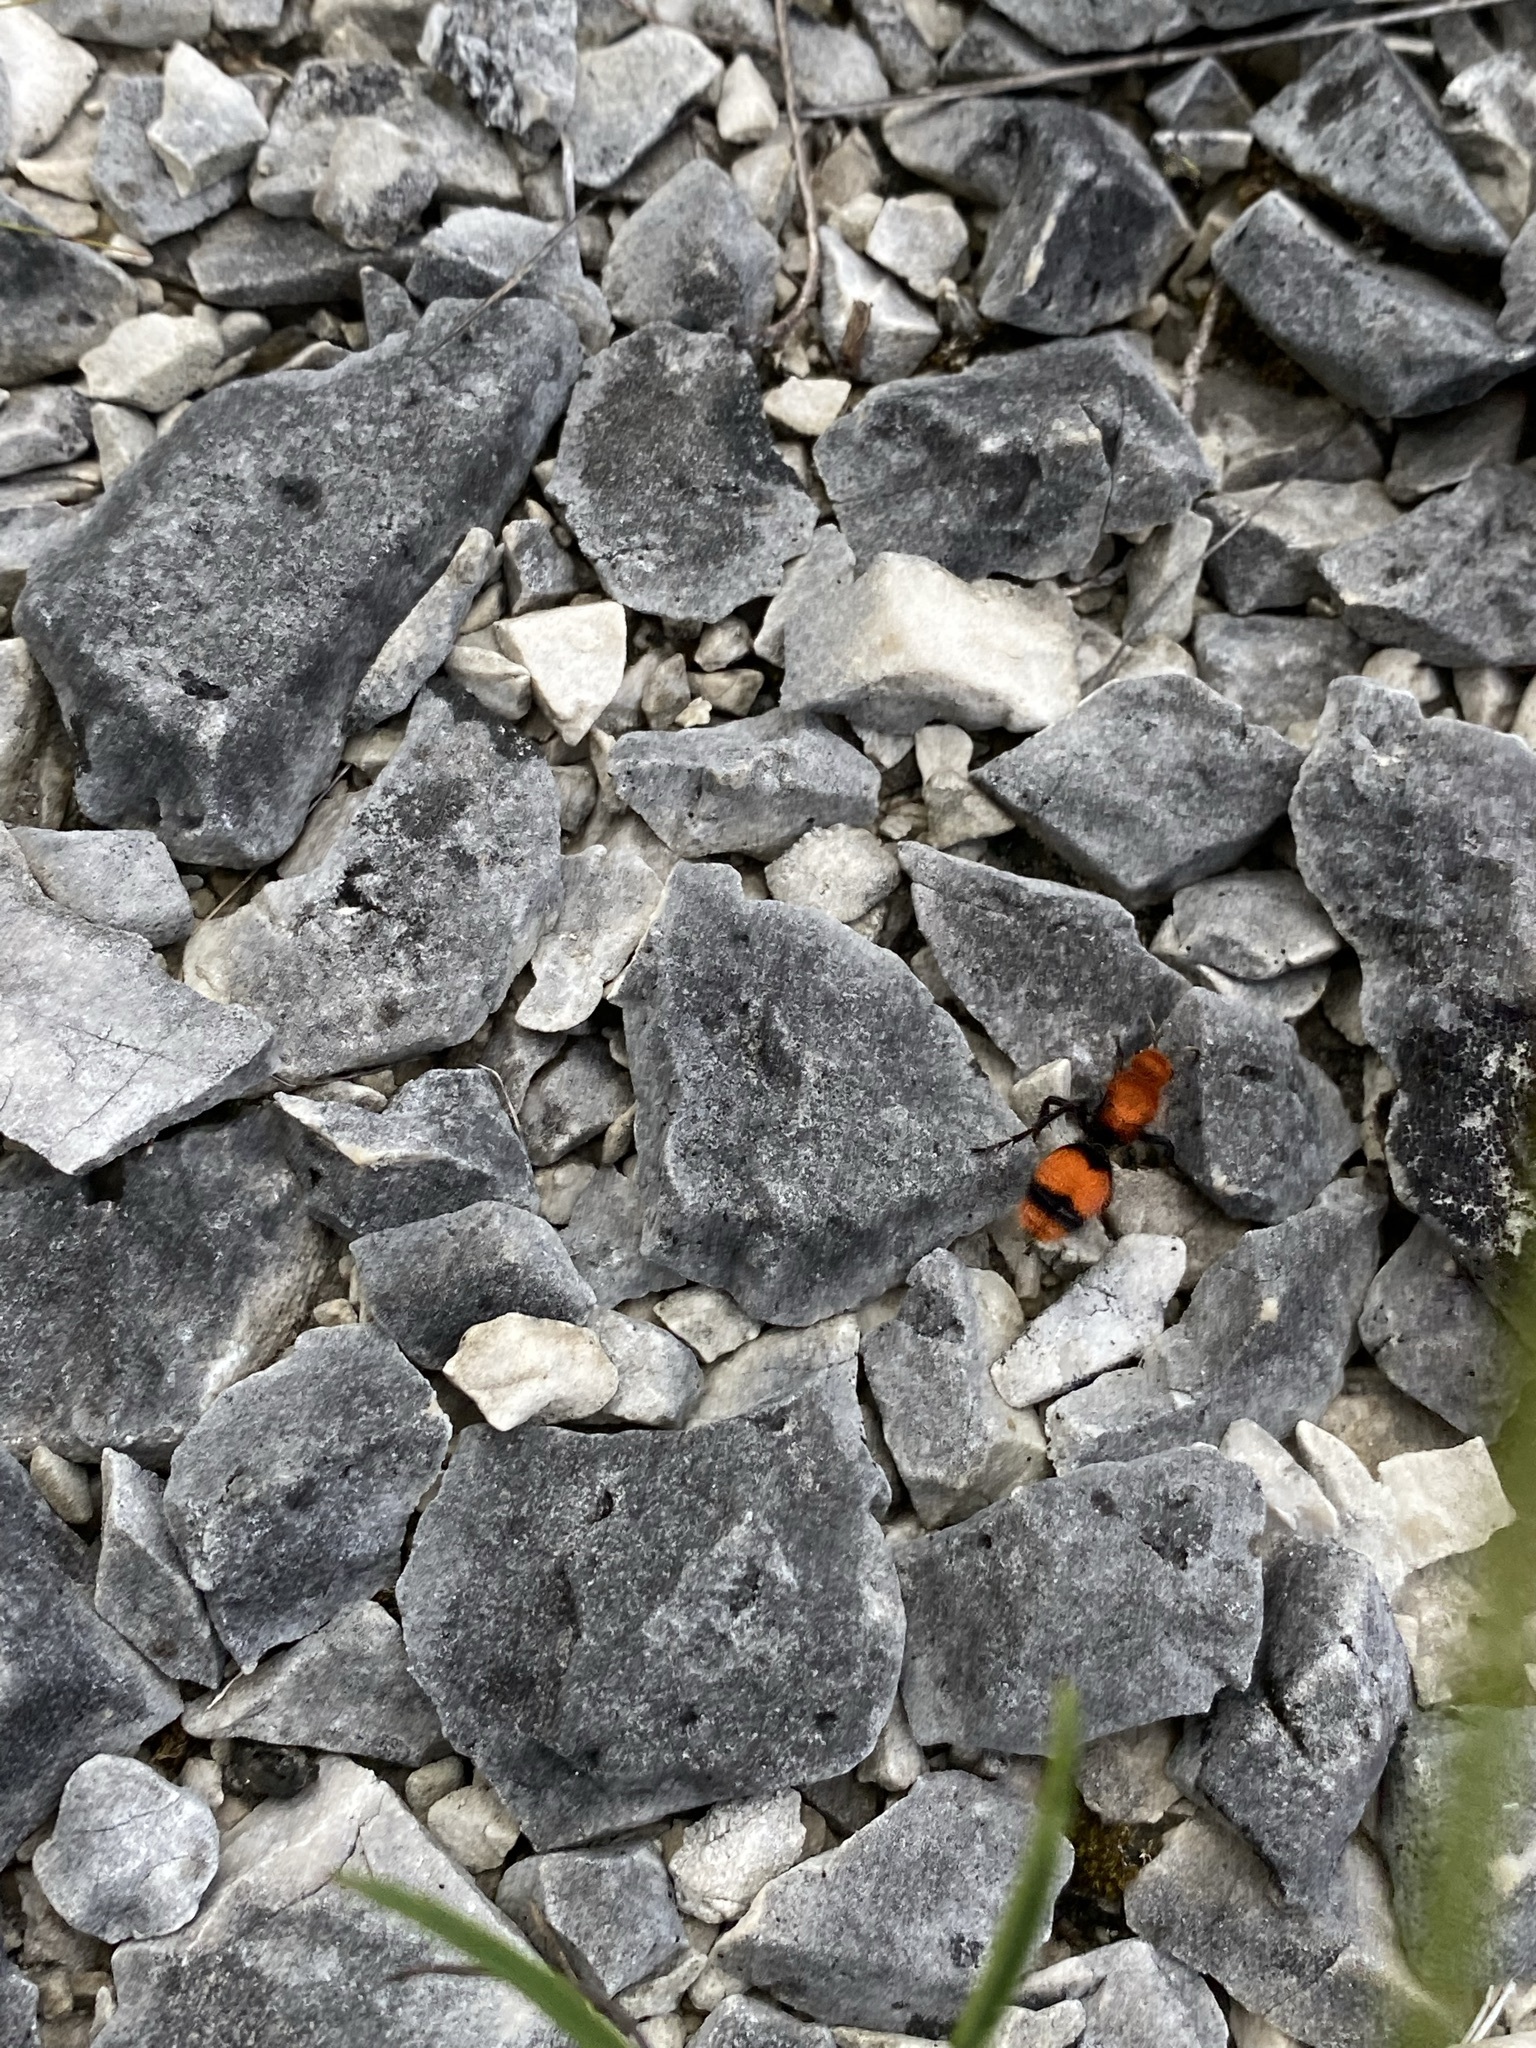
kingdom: Animalia
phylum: Arthropoda
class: Insecta
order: Hymenoptera
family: Mutillidae
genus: Dasymutilla
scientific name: Dasymutilla occidentalis
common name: Common eastern velvet ant
